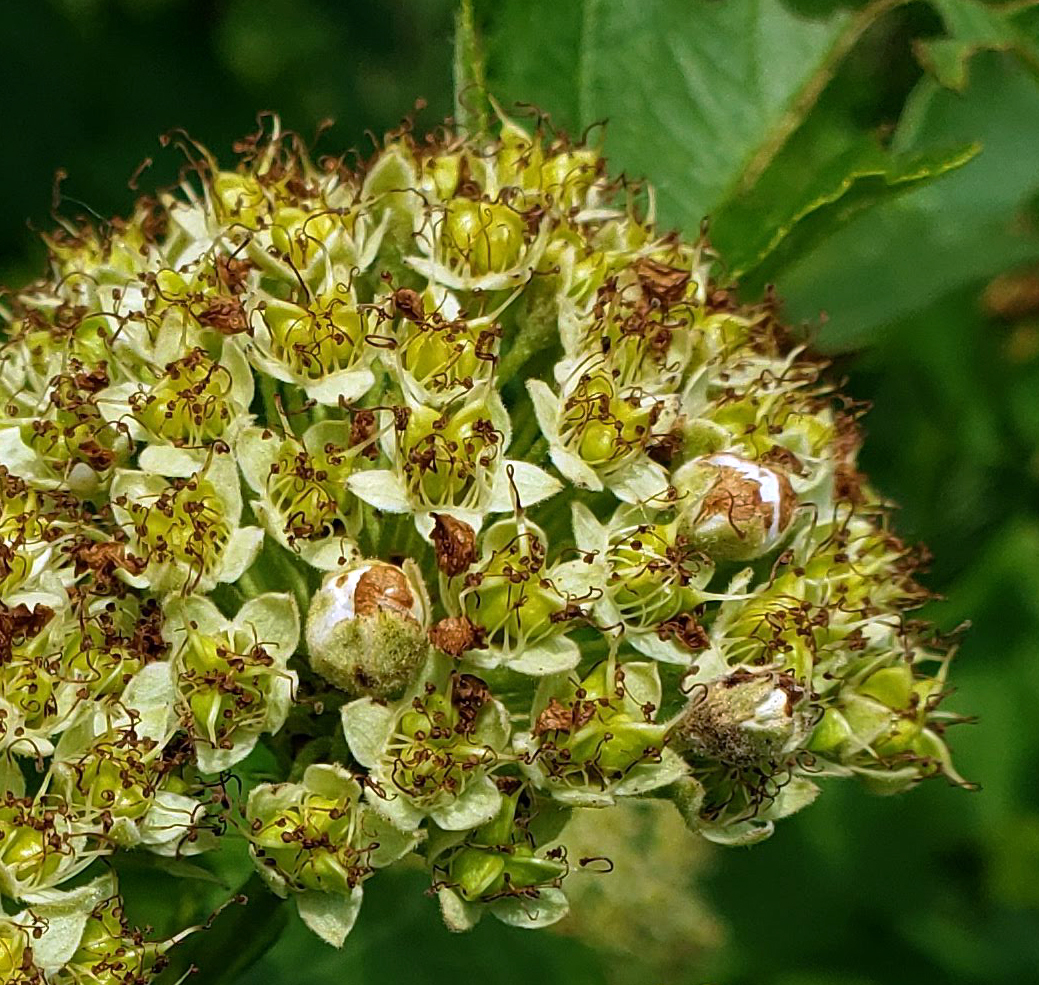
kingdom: Plantae
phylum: Tracheophyta
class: Magnoliopsida
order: Rosales
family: Rosaceae
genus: Physocarpus
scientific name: Physocarpus opulifolius
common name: Ninebark
